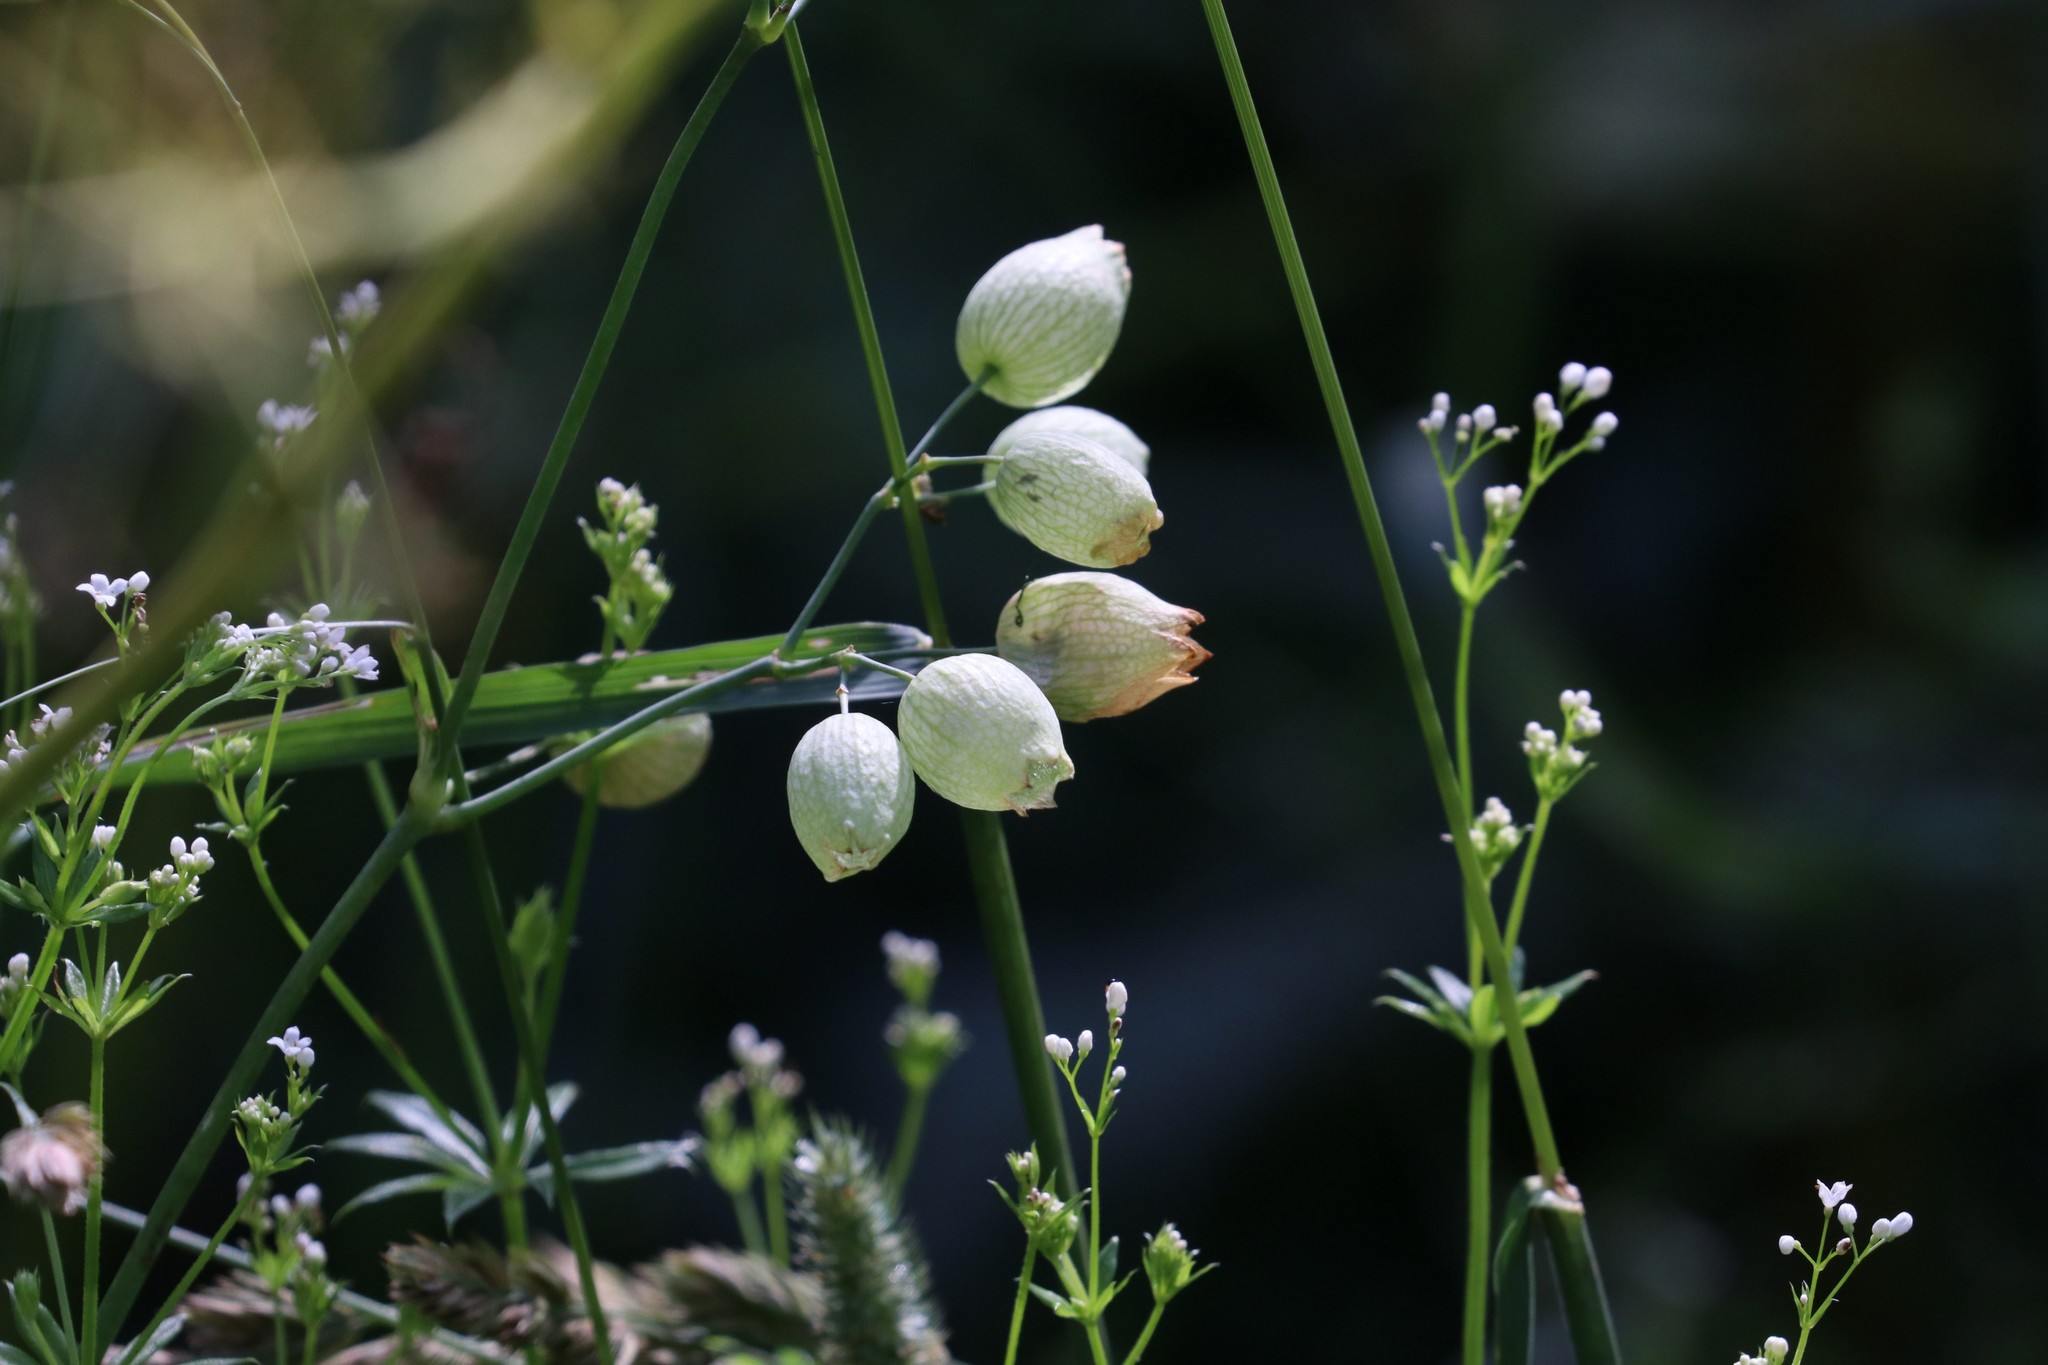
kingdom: Plantae
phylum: Tracheophyta
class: Magnoliopsida
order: Caryophyllales
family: Caryophyllaceae
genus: Silene
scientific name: Silene vulgaris
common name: Bladder campion
